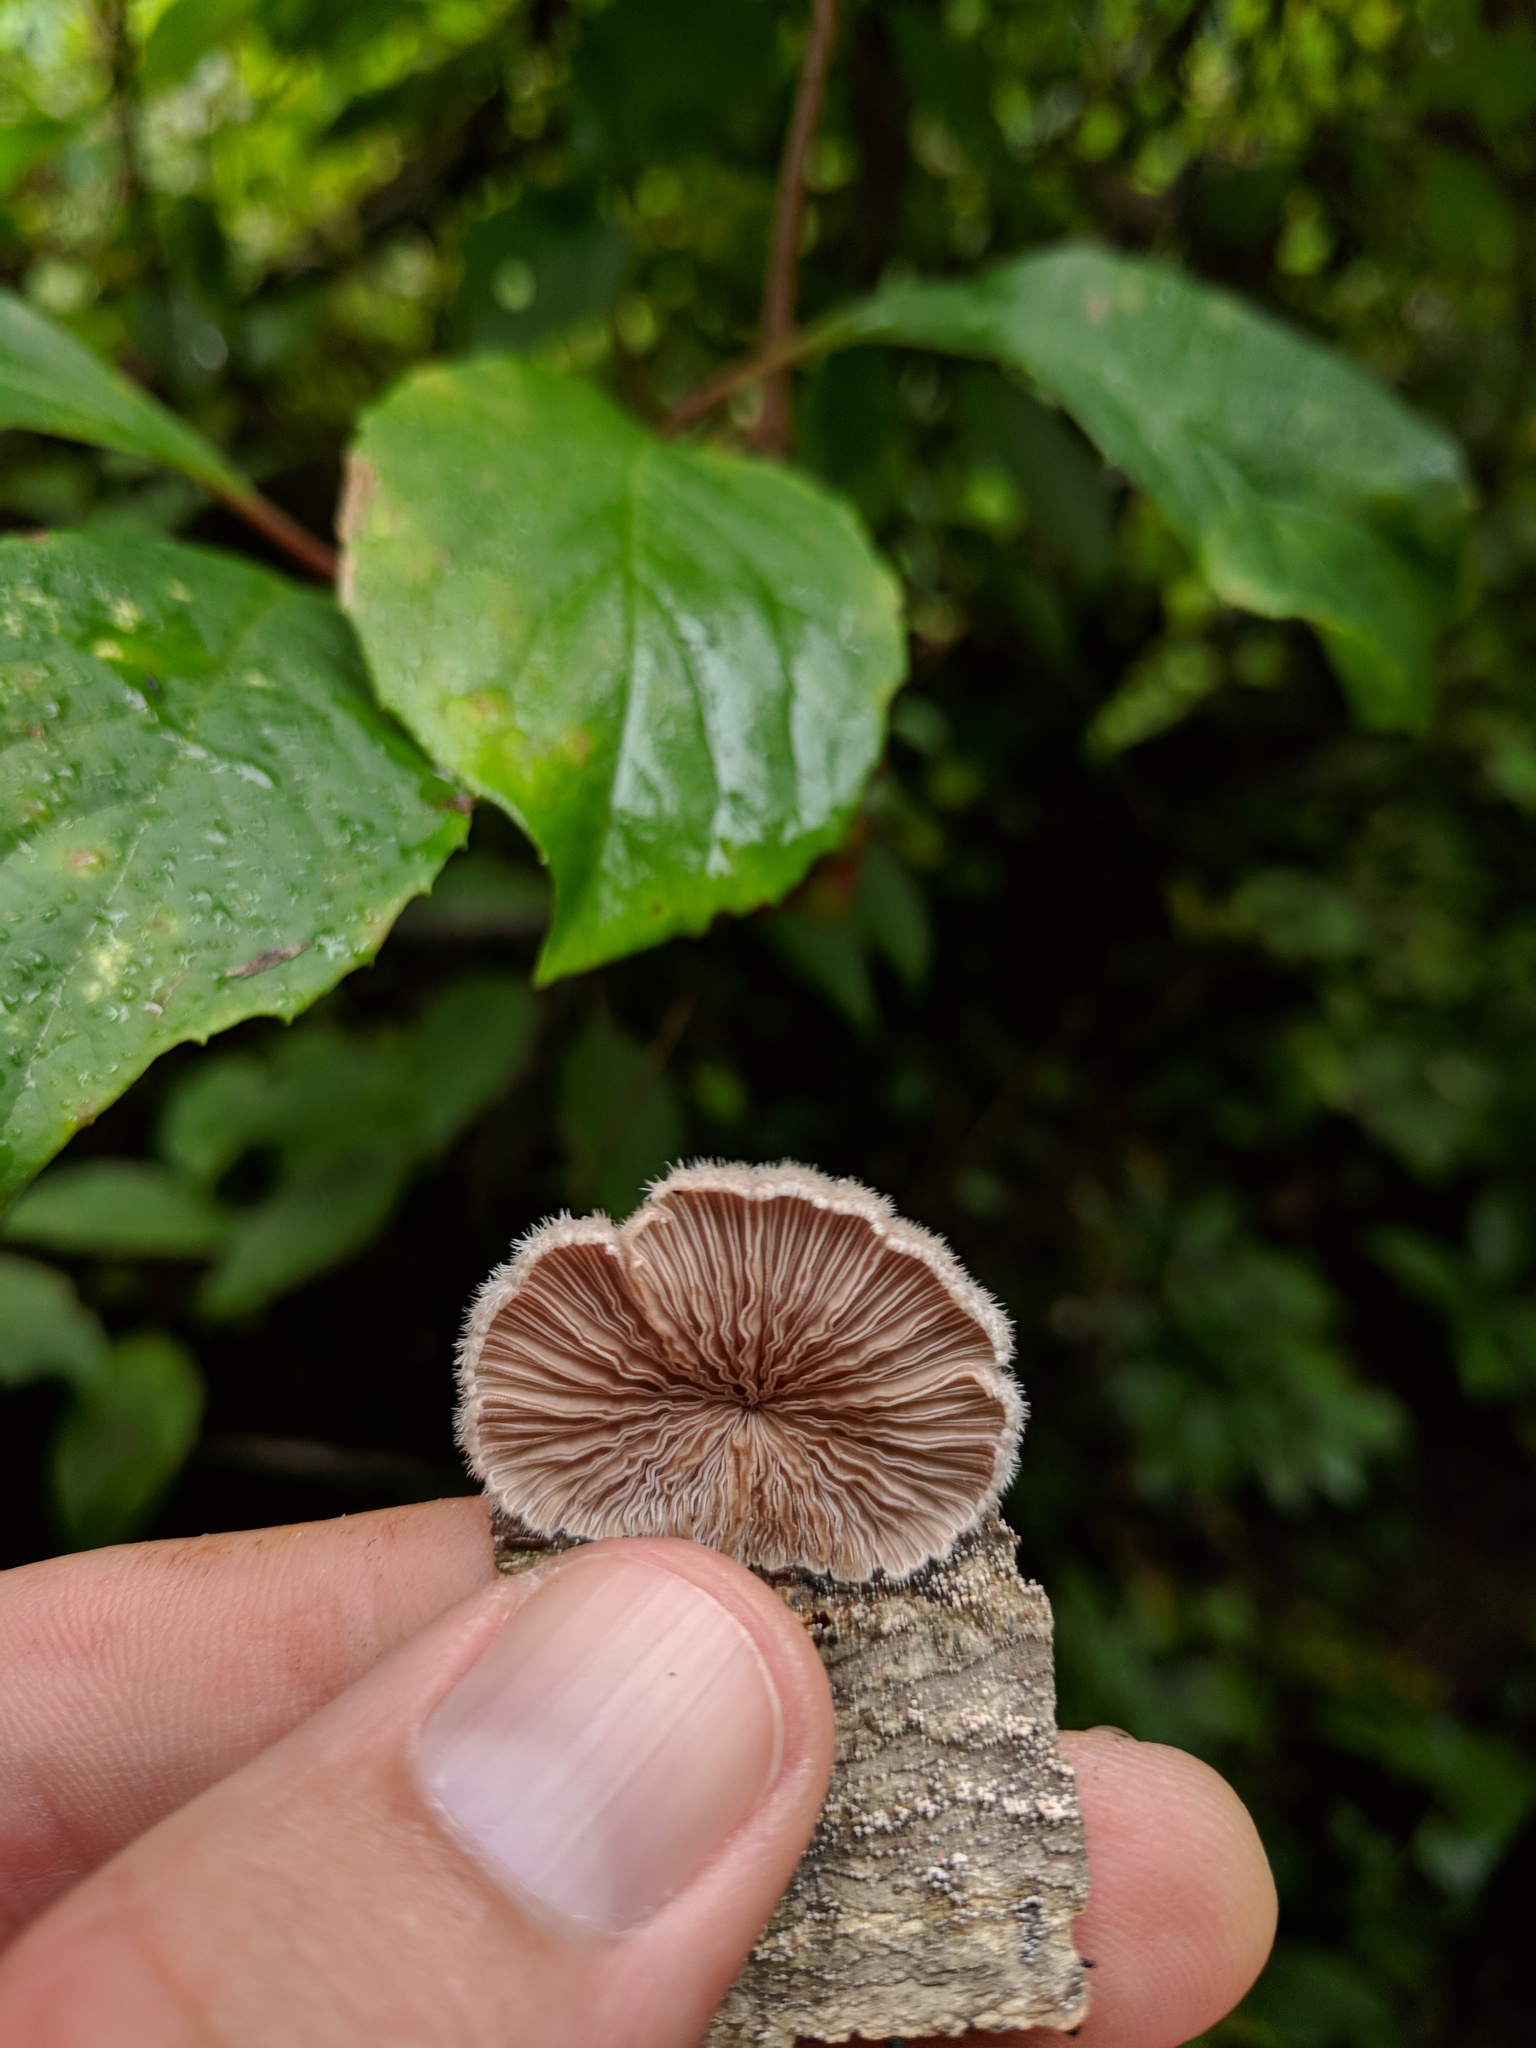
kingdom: Fungi
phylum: Basidiomycota
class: Agaricomycetes
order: Agaricales
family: Schizophyllaceae
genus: Schizophyllum
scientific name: Schizophyllum commune
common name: Common porecrust
